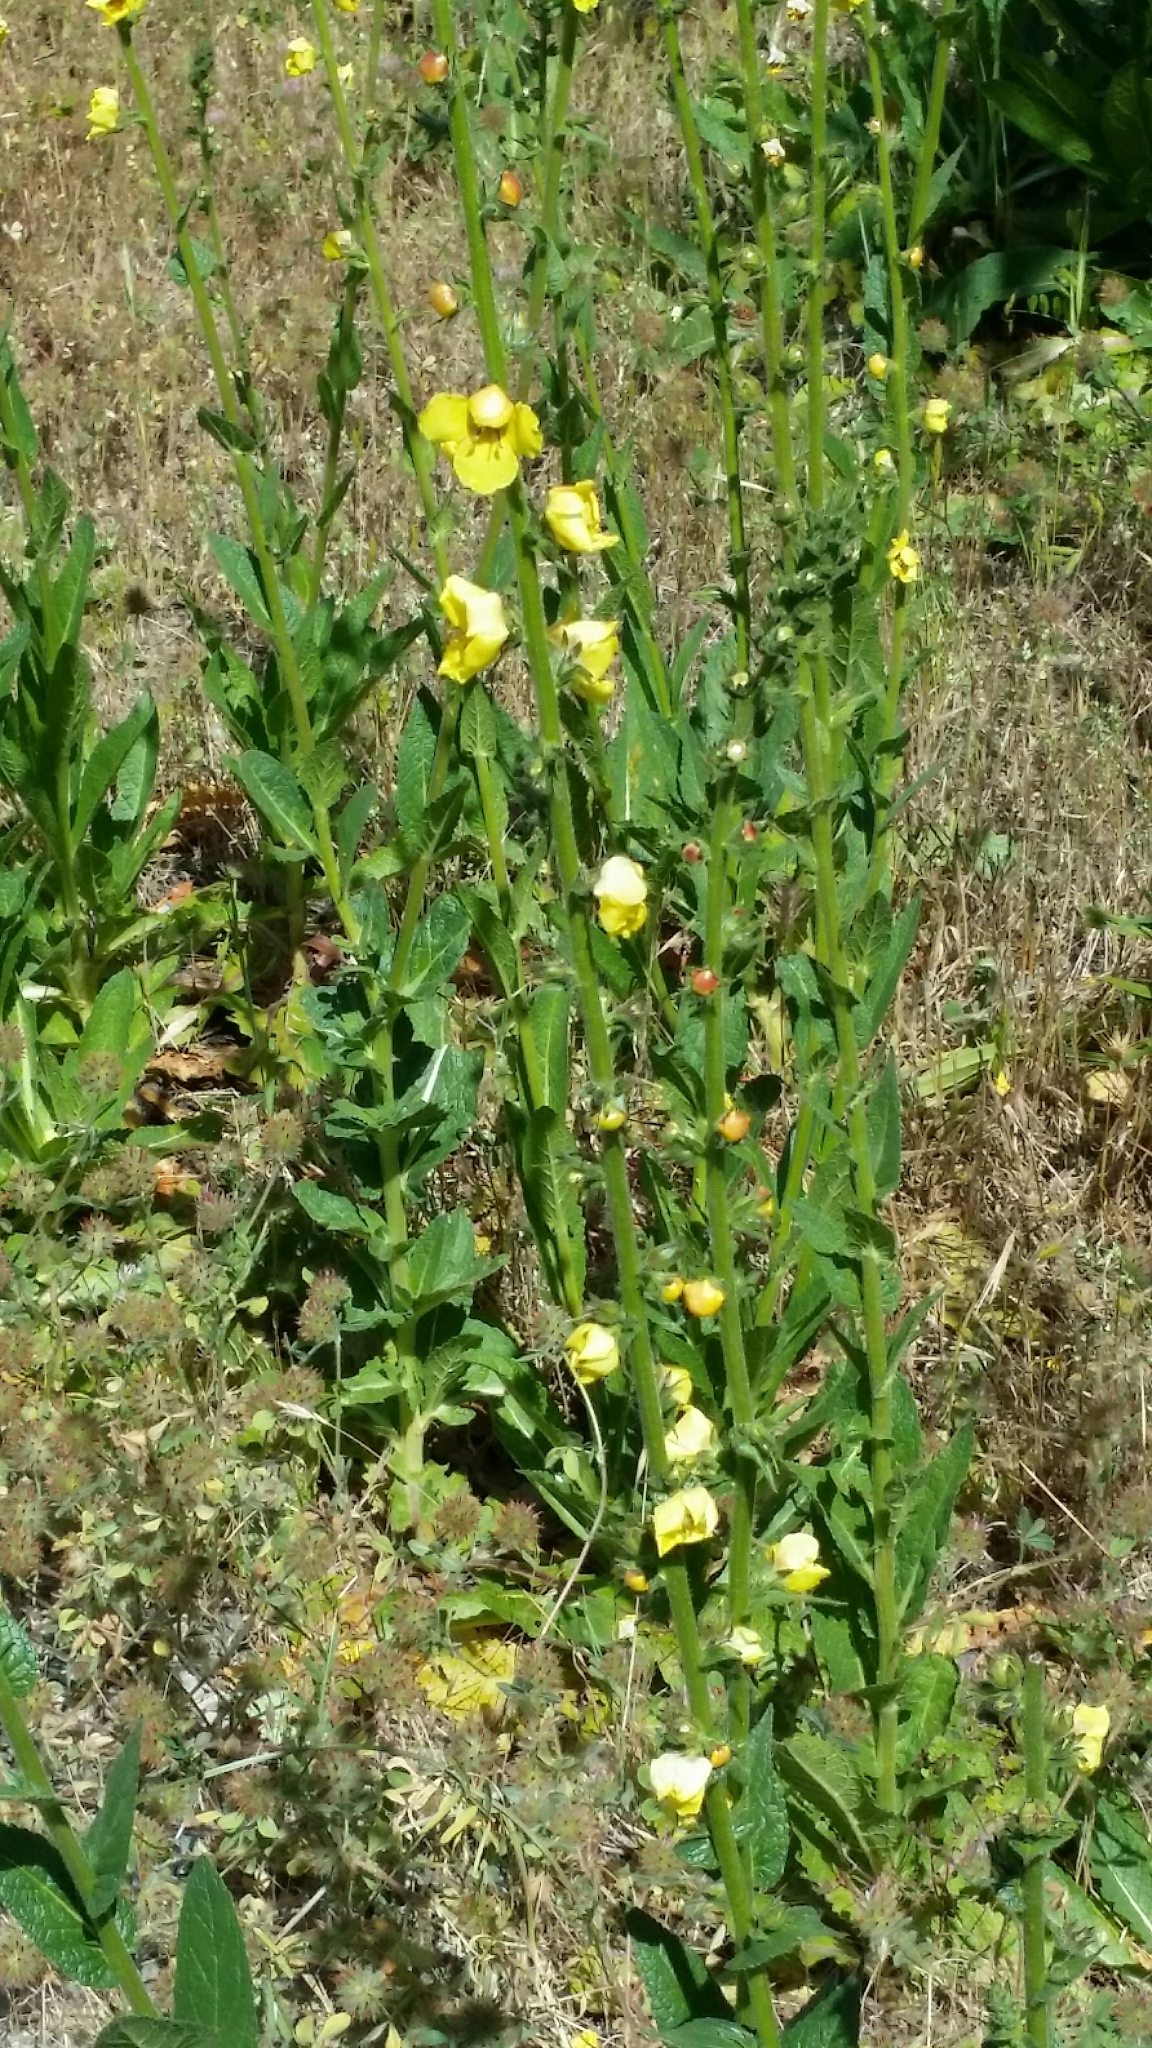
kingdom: Plantae
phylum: Tracheophyta
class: Magnoliopsida
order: Lamiales
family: Scrophulariaceae
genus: Verbascum
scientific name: Verbascum virgatum
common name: Twiggy mullein
